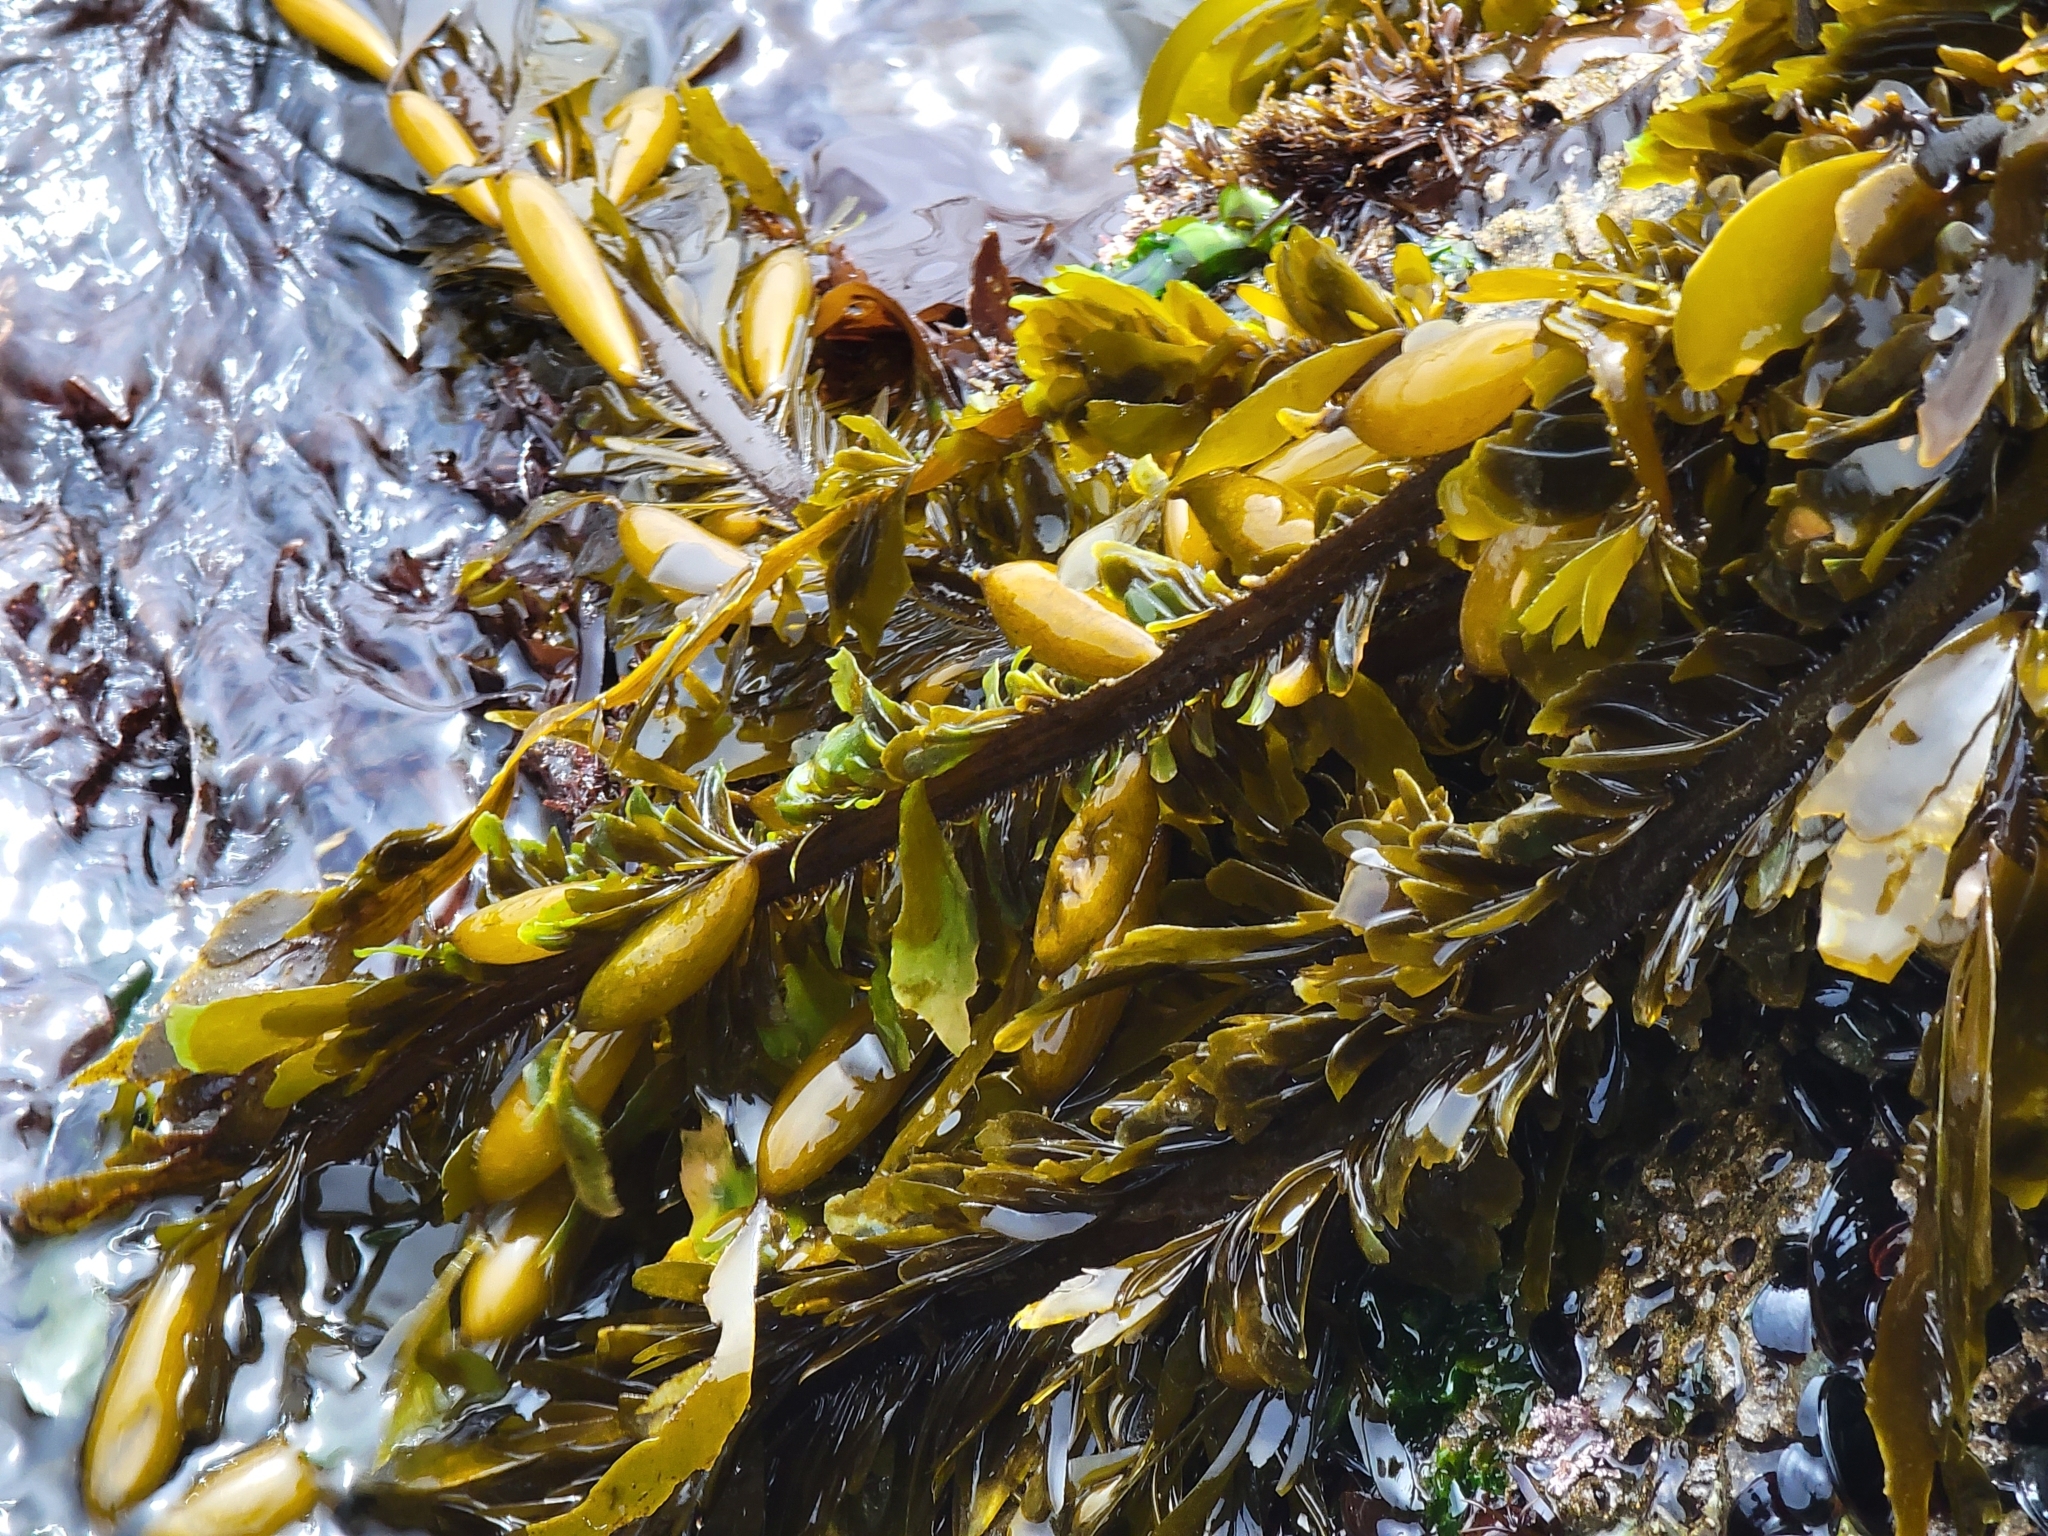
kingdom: Chromista
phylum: Ochrophyta
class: Phaeophyceae
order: Laminariales
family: Lessoniaceae
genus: Egregia
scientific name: Egregia menziesii
